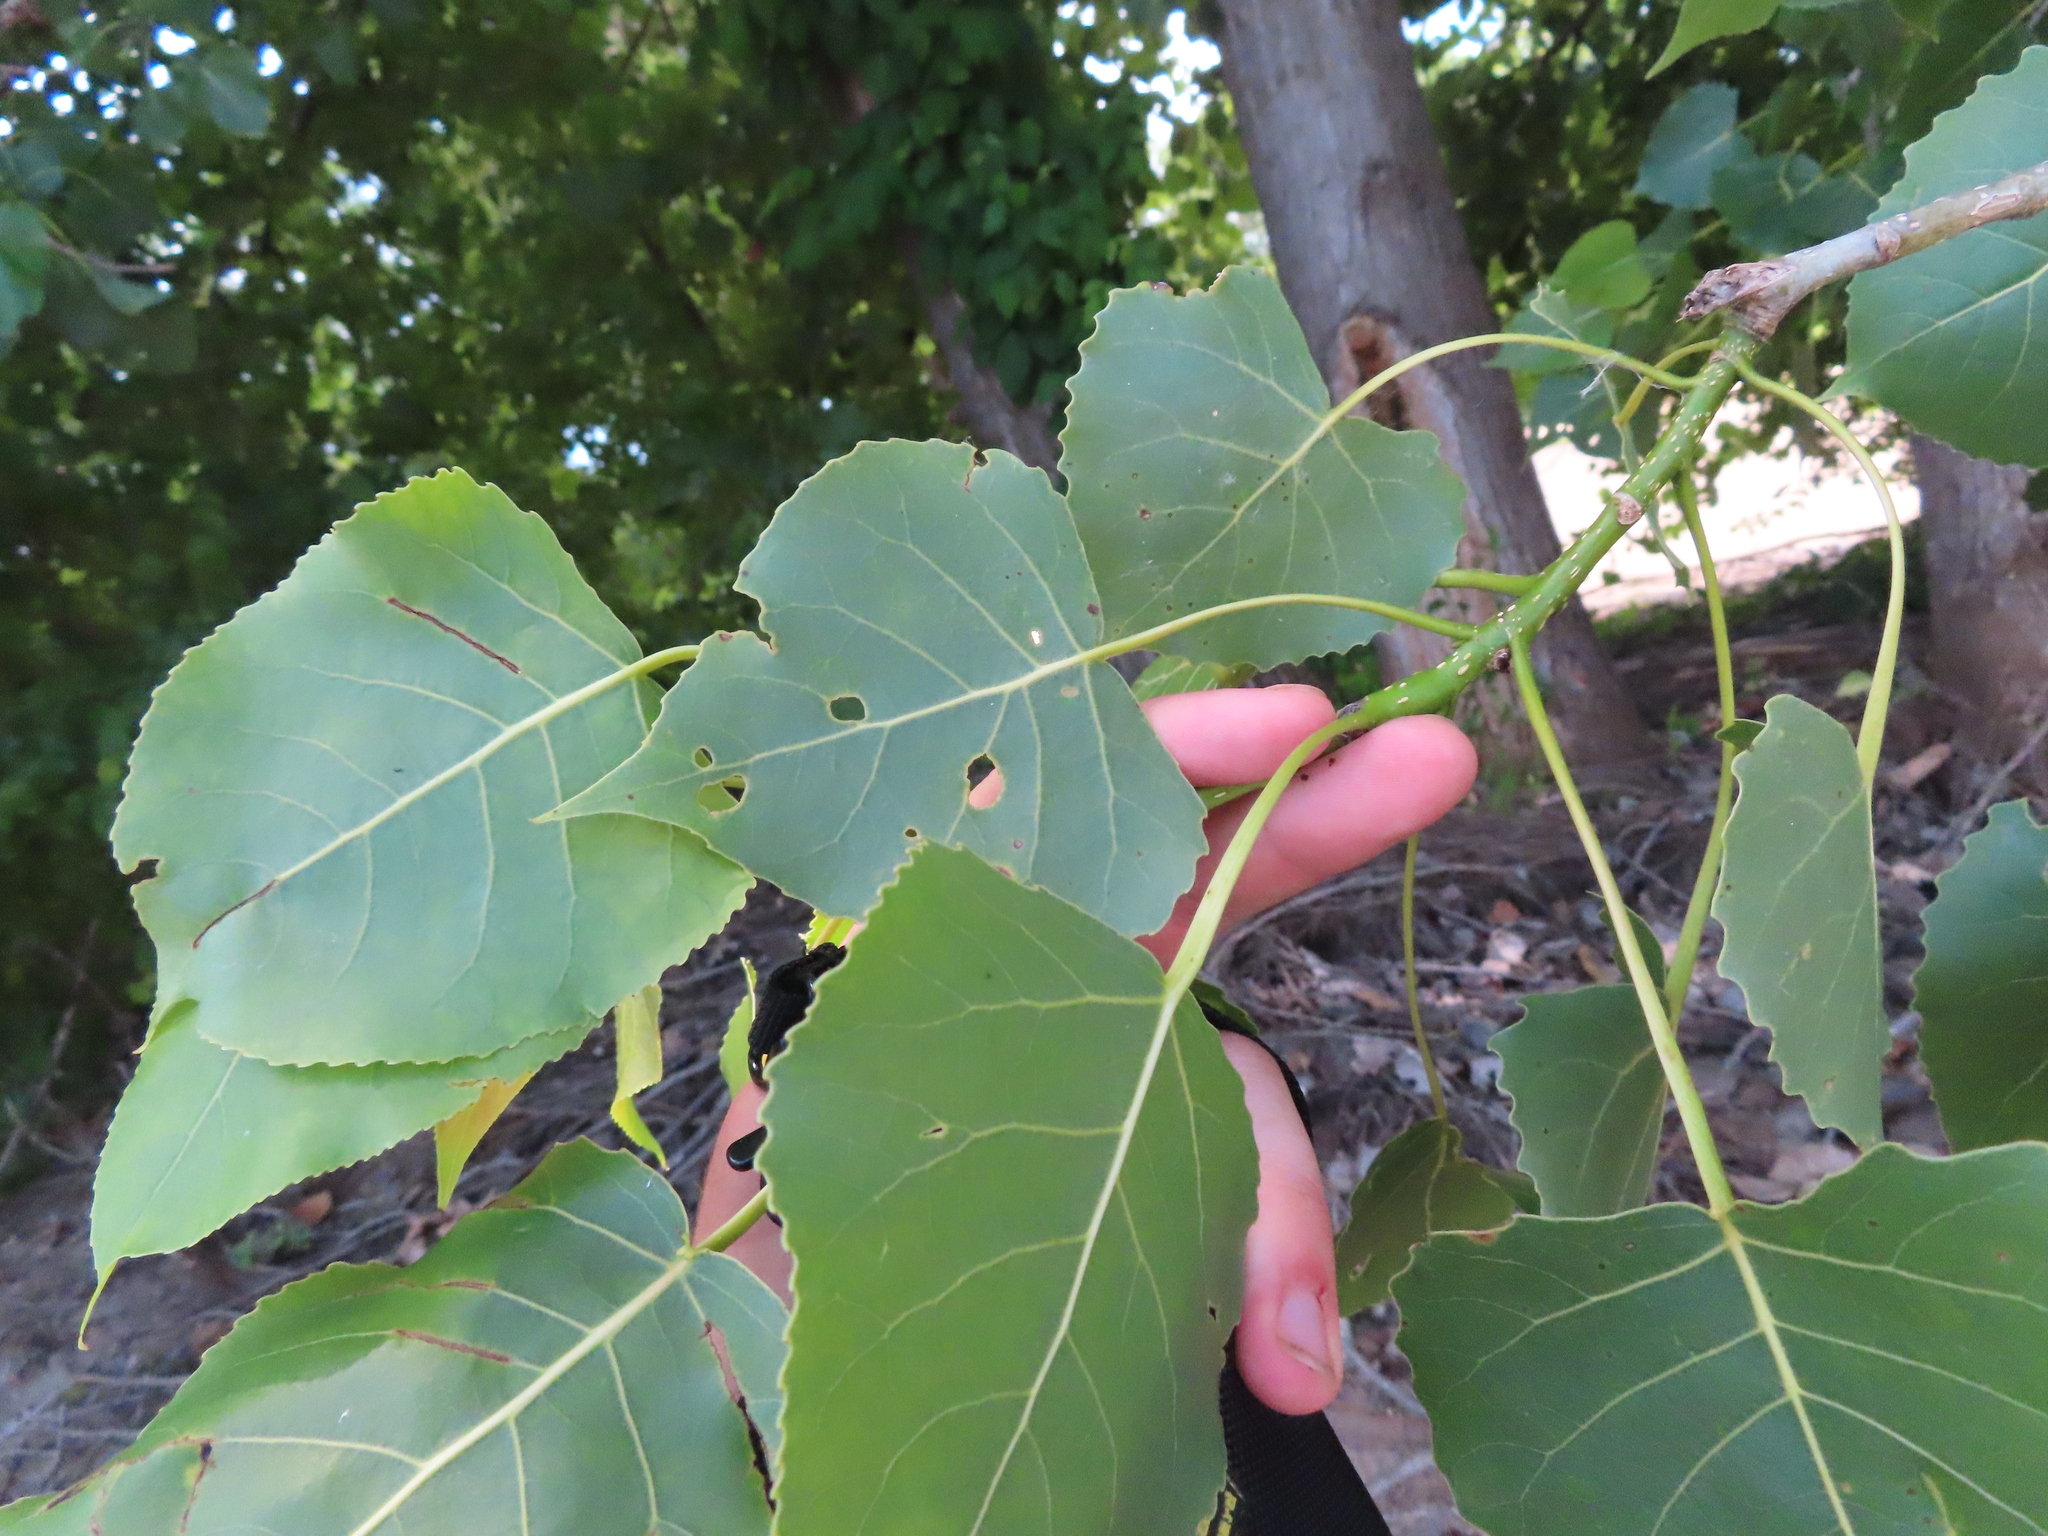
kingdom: Plantae
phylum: Tracheophyta
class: Magnoliopsida
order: Malpighiales
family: Salicaceae
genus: Populus
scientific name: Populus deltoides
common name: Eastern cottonwood
